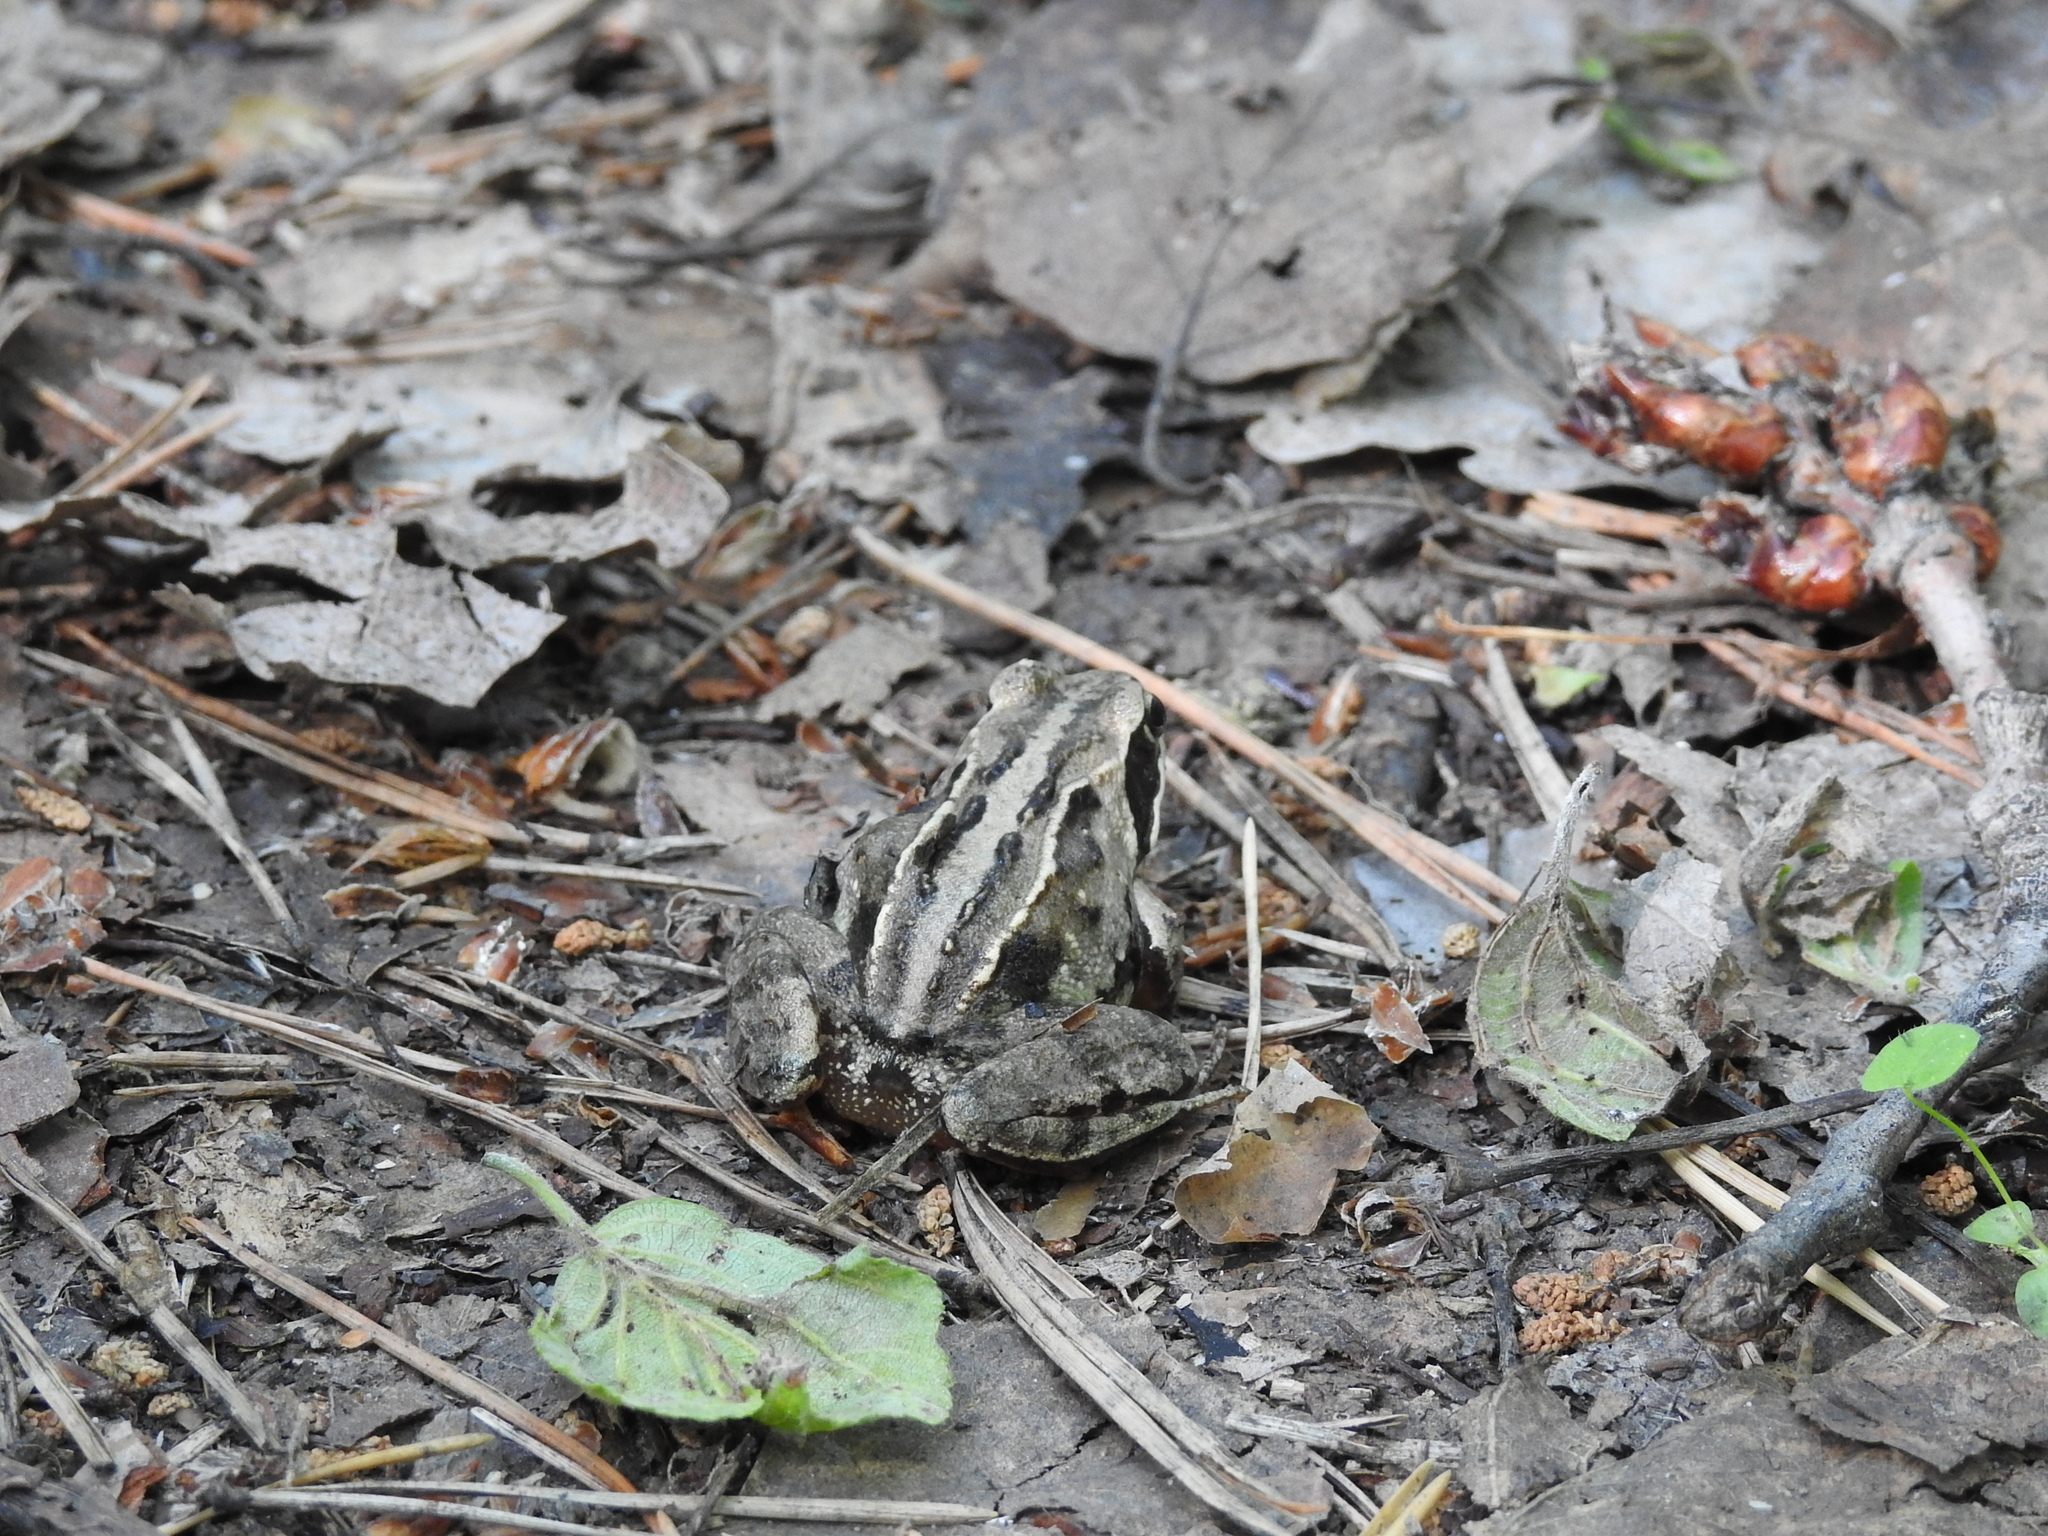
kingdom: Animalia
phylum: Chordata
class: Amphibia
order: Anura
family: Ranidae
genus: Rana
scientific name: Rana arvalis
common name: Moor frog
